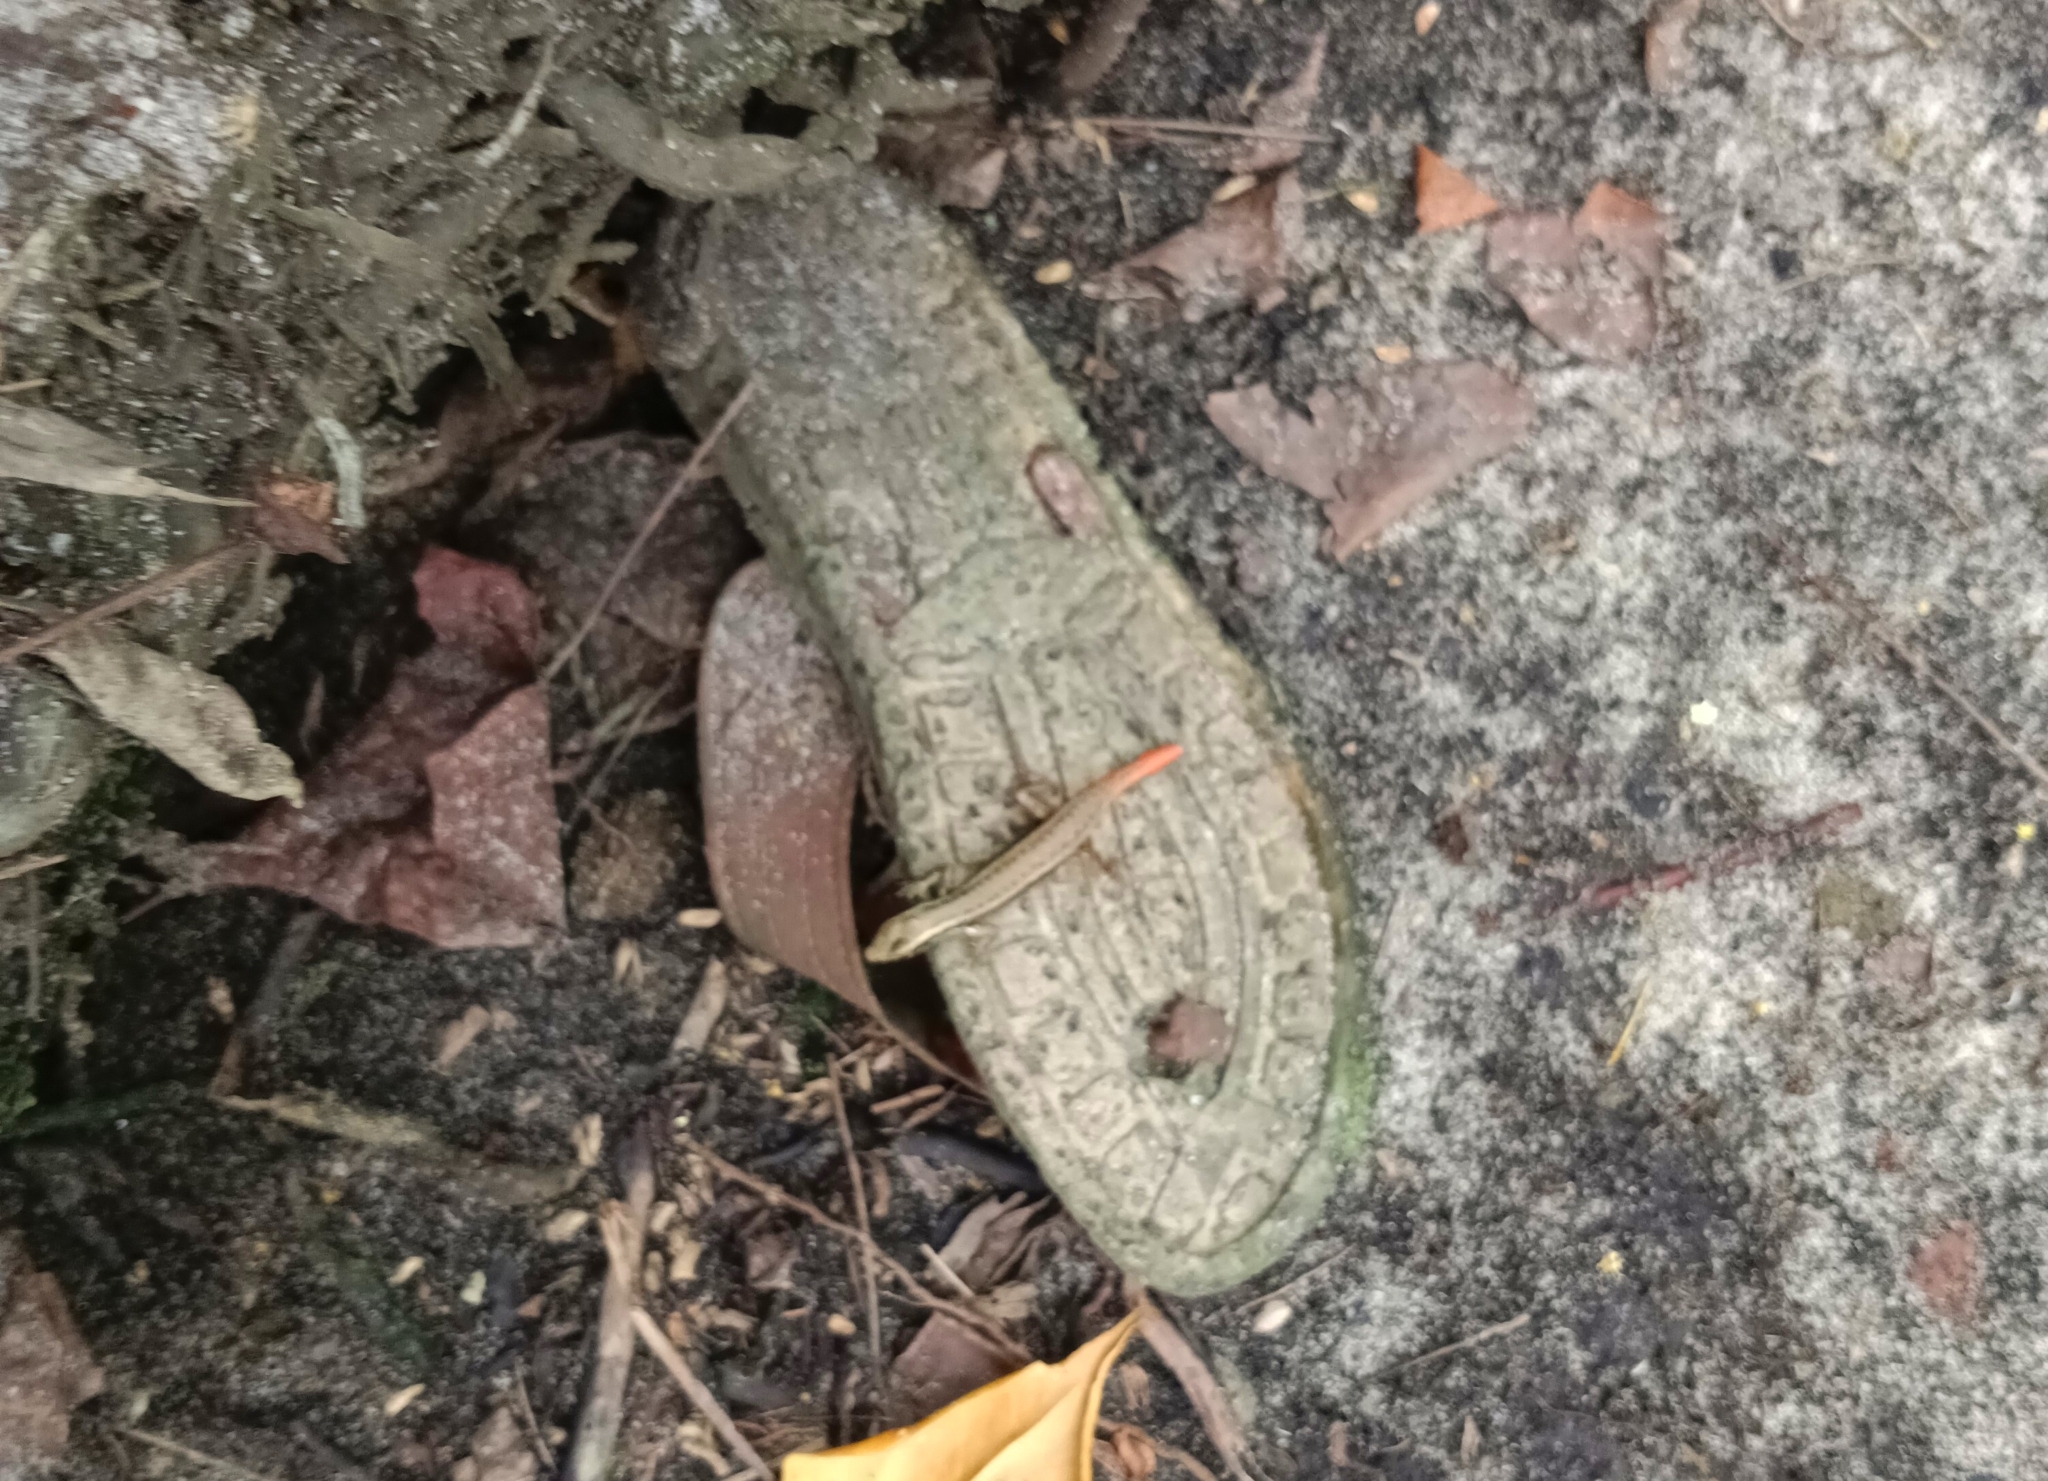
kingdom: Animalia
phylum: Chordata
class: Squamata
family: Scincidae
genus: Sphenomorphus
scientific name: Sphenomorphus dussumieri
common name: Dussumier's forest skink
